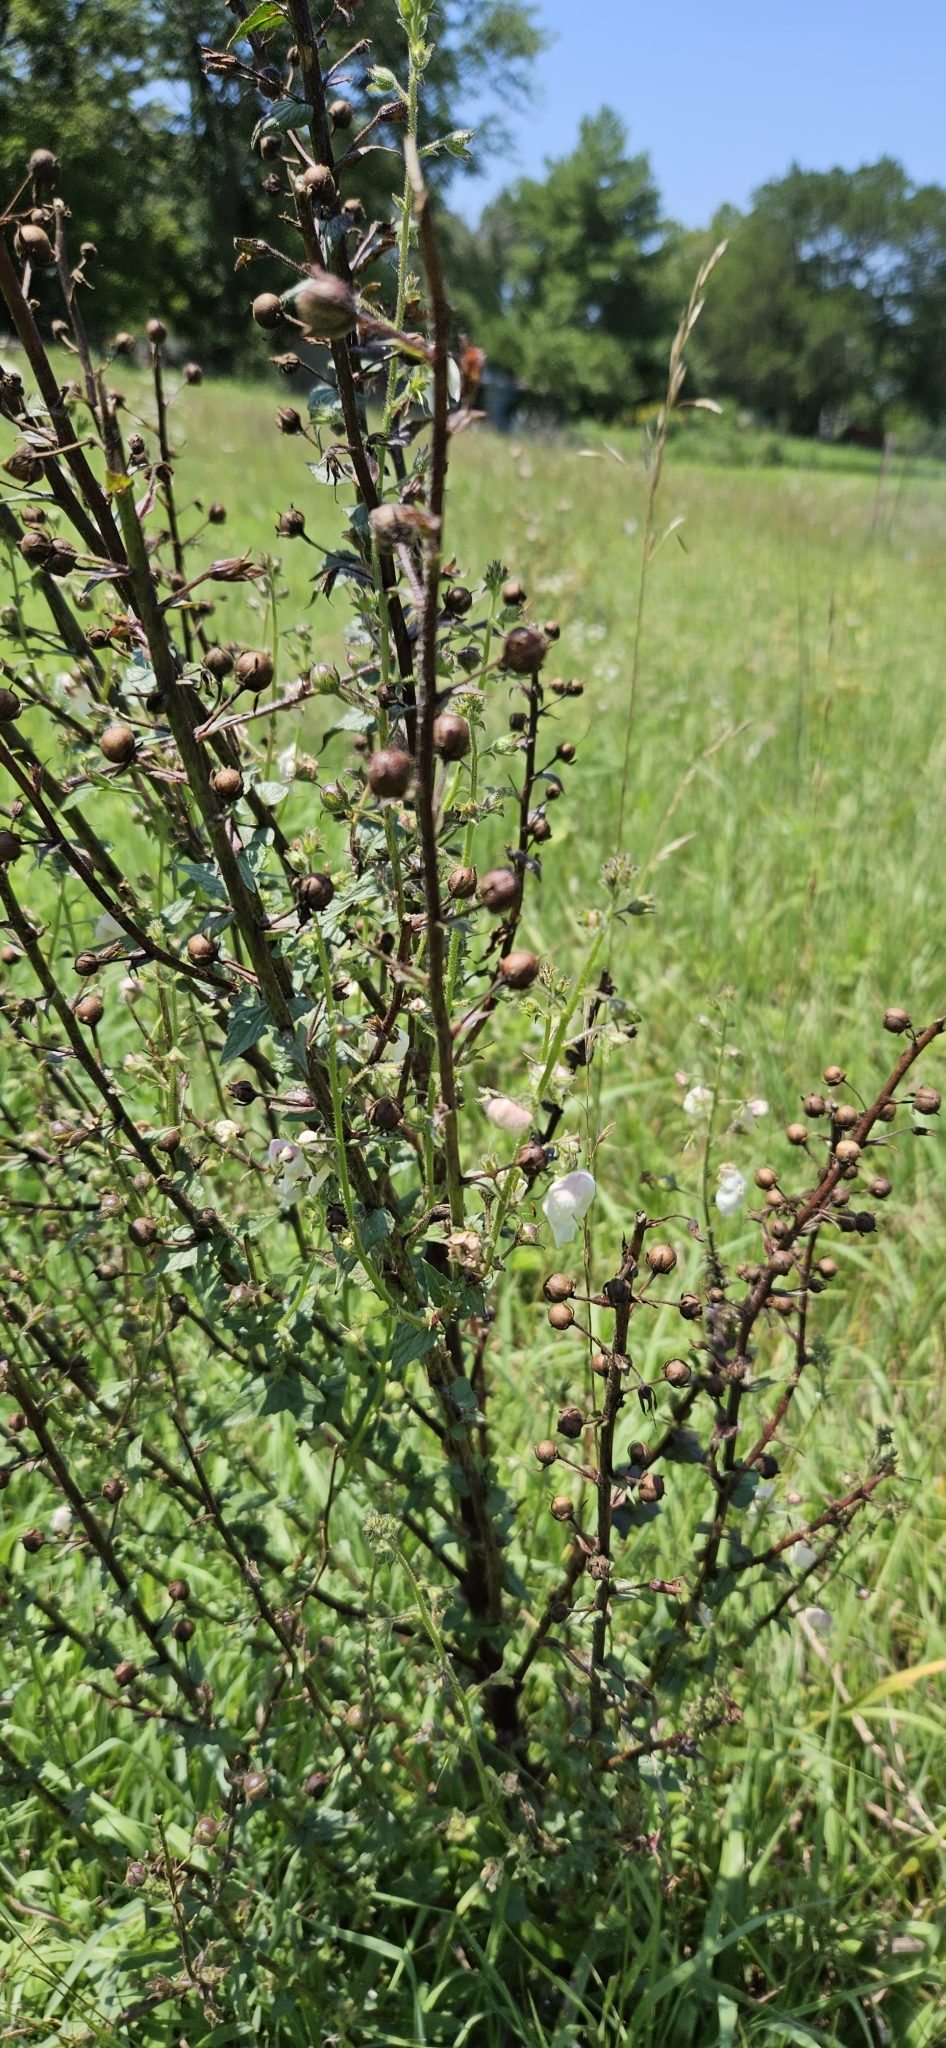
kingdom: Plantae
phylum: Tracheophyta
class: Magnoliopsida
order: Lamiales
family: Scrophulariaceae
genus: Verbascum
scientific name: Verbascum blattaria
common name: Moth mullein
